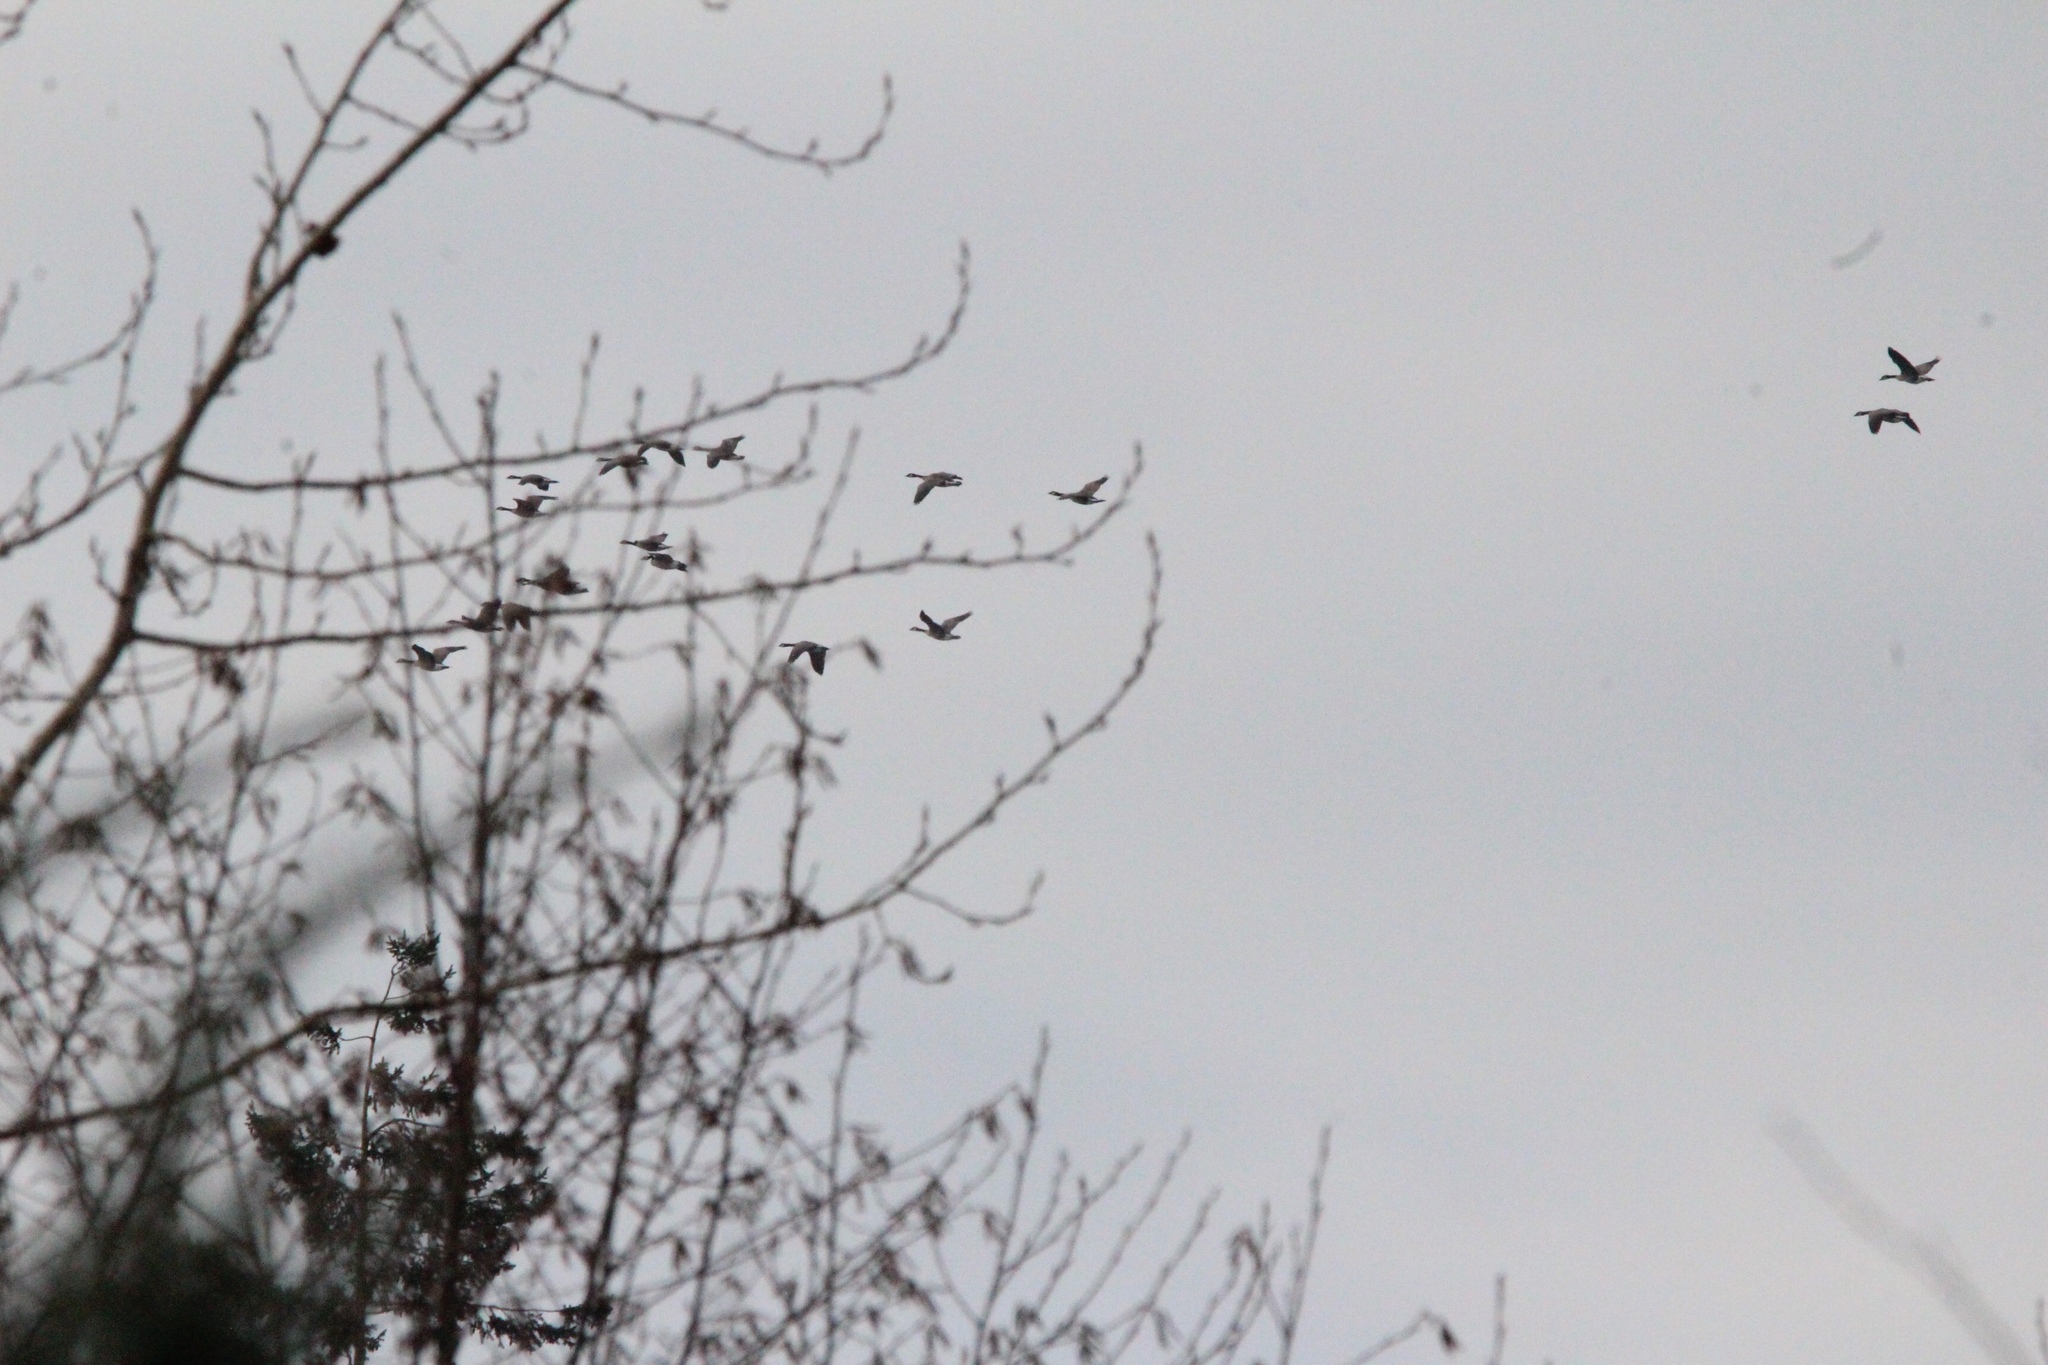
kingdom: Animalia
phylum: Chordata
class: Aves
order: Anseriformes
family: Anatidae
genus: Branta
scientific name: Branta canadensis
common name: Canada goose
